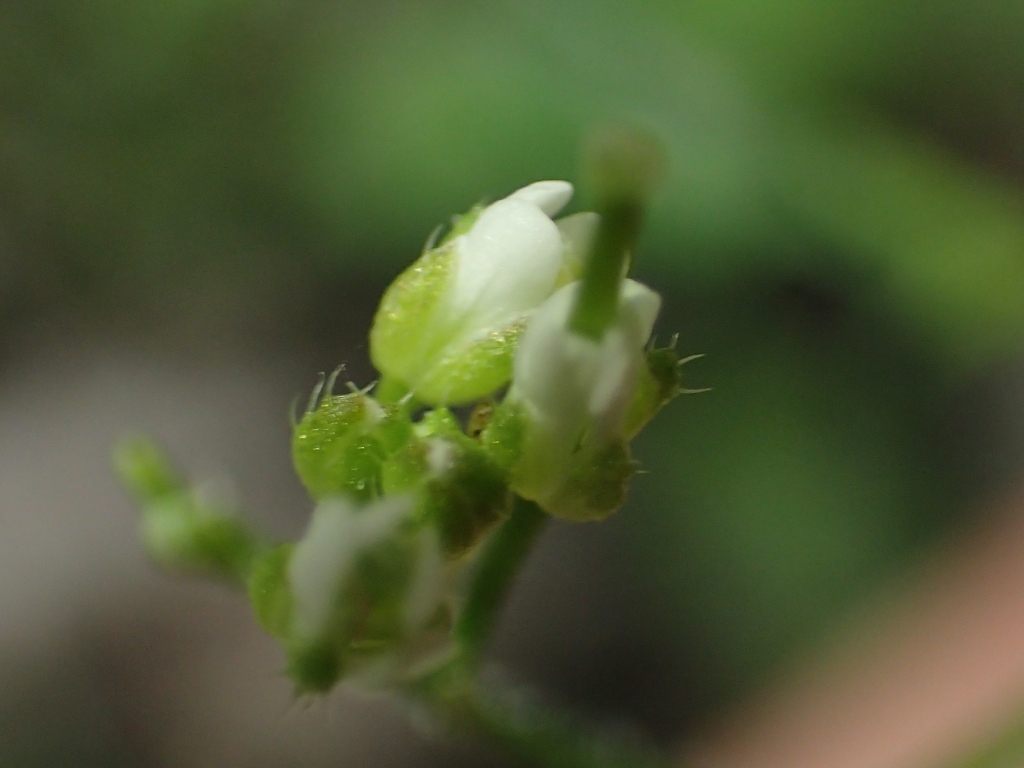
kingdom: Plantae
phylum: Tracheophyta
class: Magnoliopsida
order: Brassicales
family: Brassicaceae
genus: Cardamine
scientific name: Cardamine flexuosa
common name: Woodland bittercress
